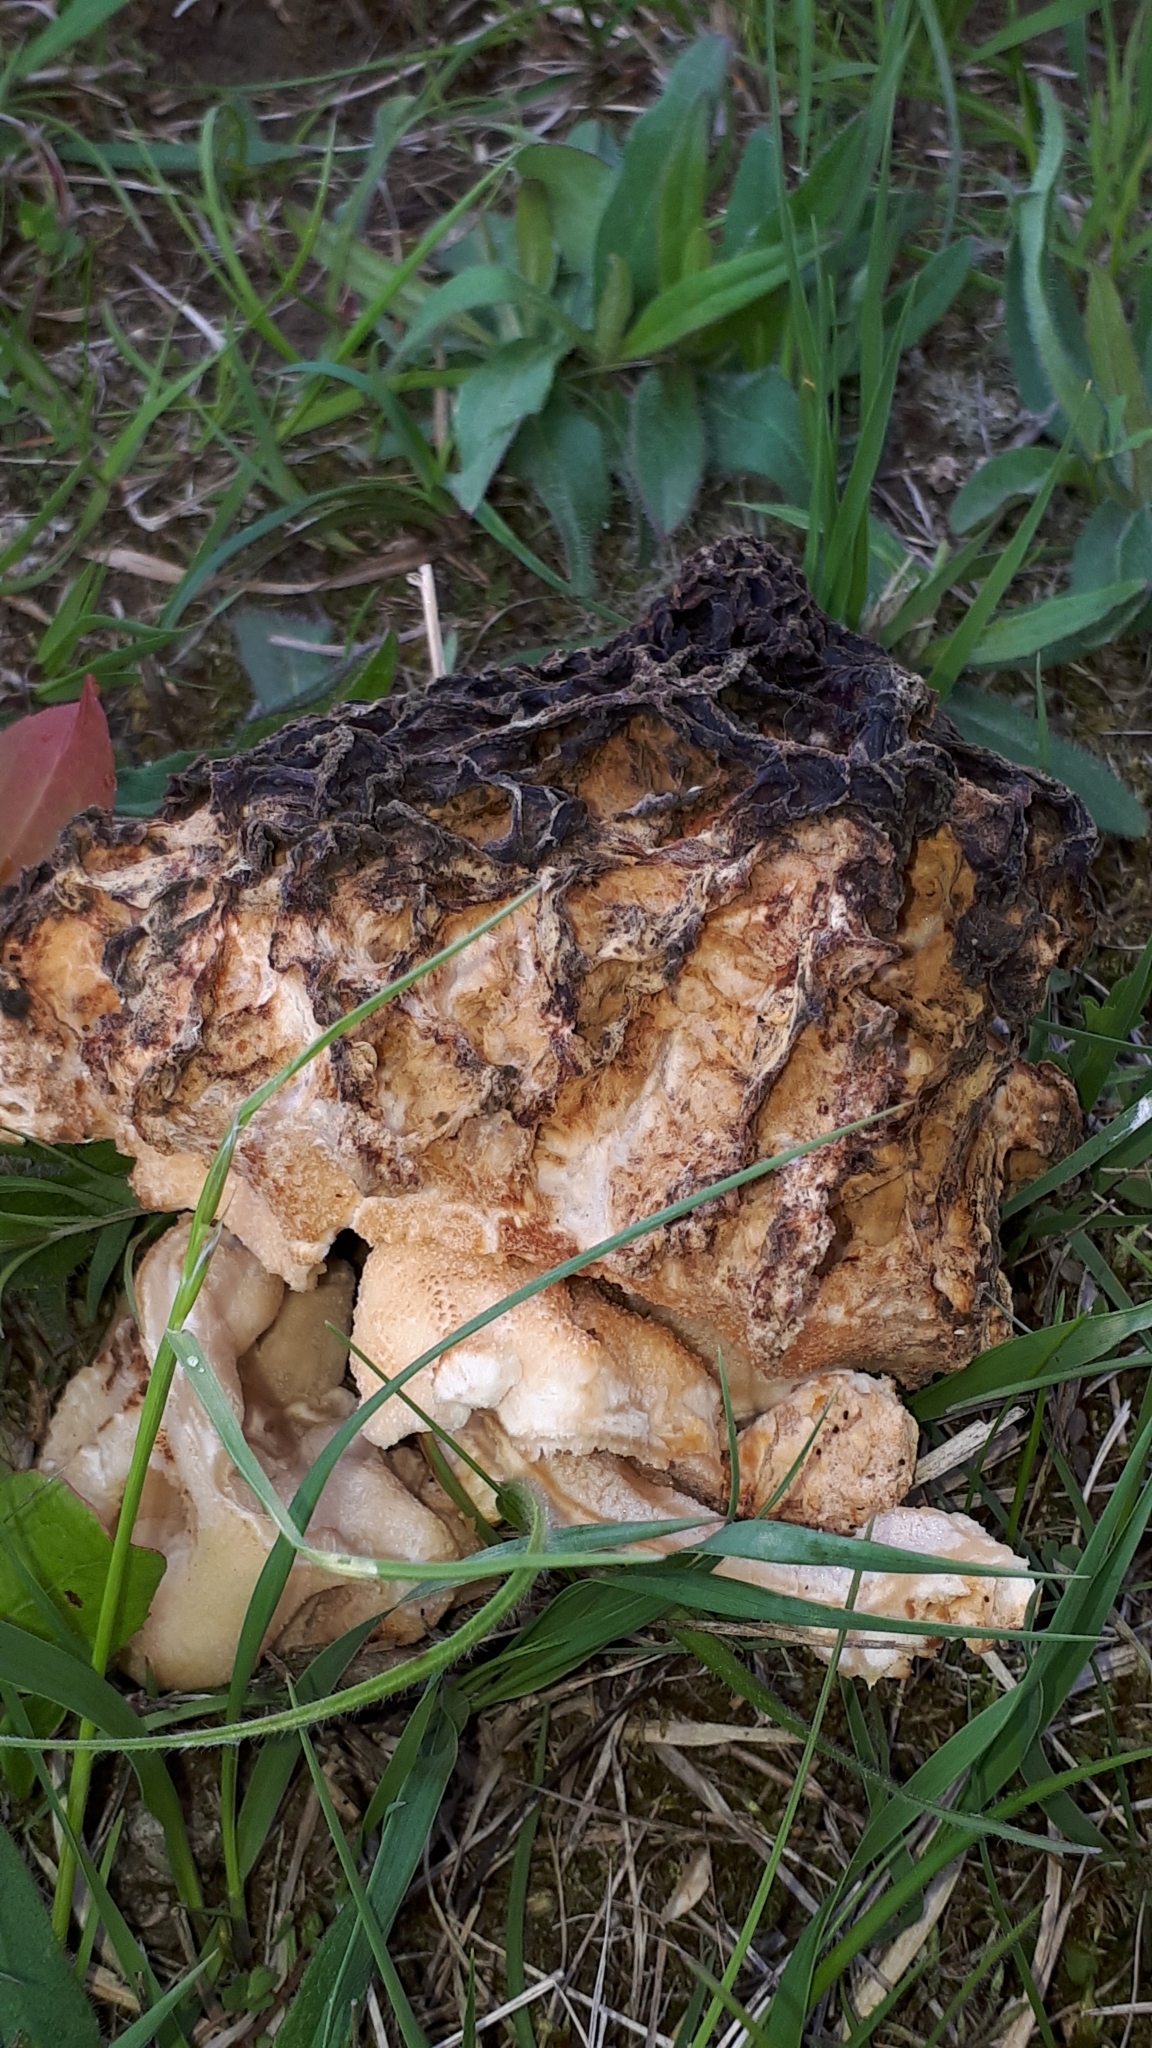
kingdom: Fungi
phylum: Ascomycota
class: Pezizomycetes
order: Pezizales
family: Morchellaceae
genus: Morchella
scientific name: Morchella
